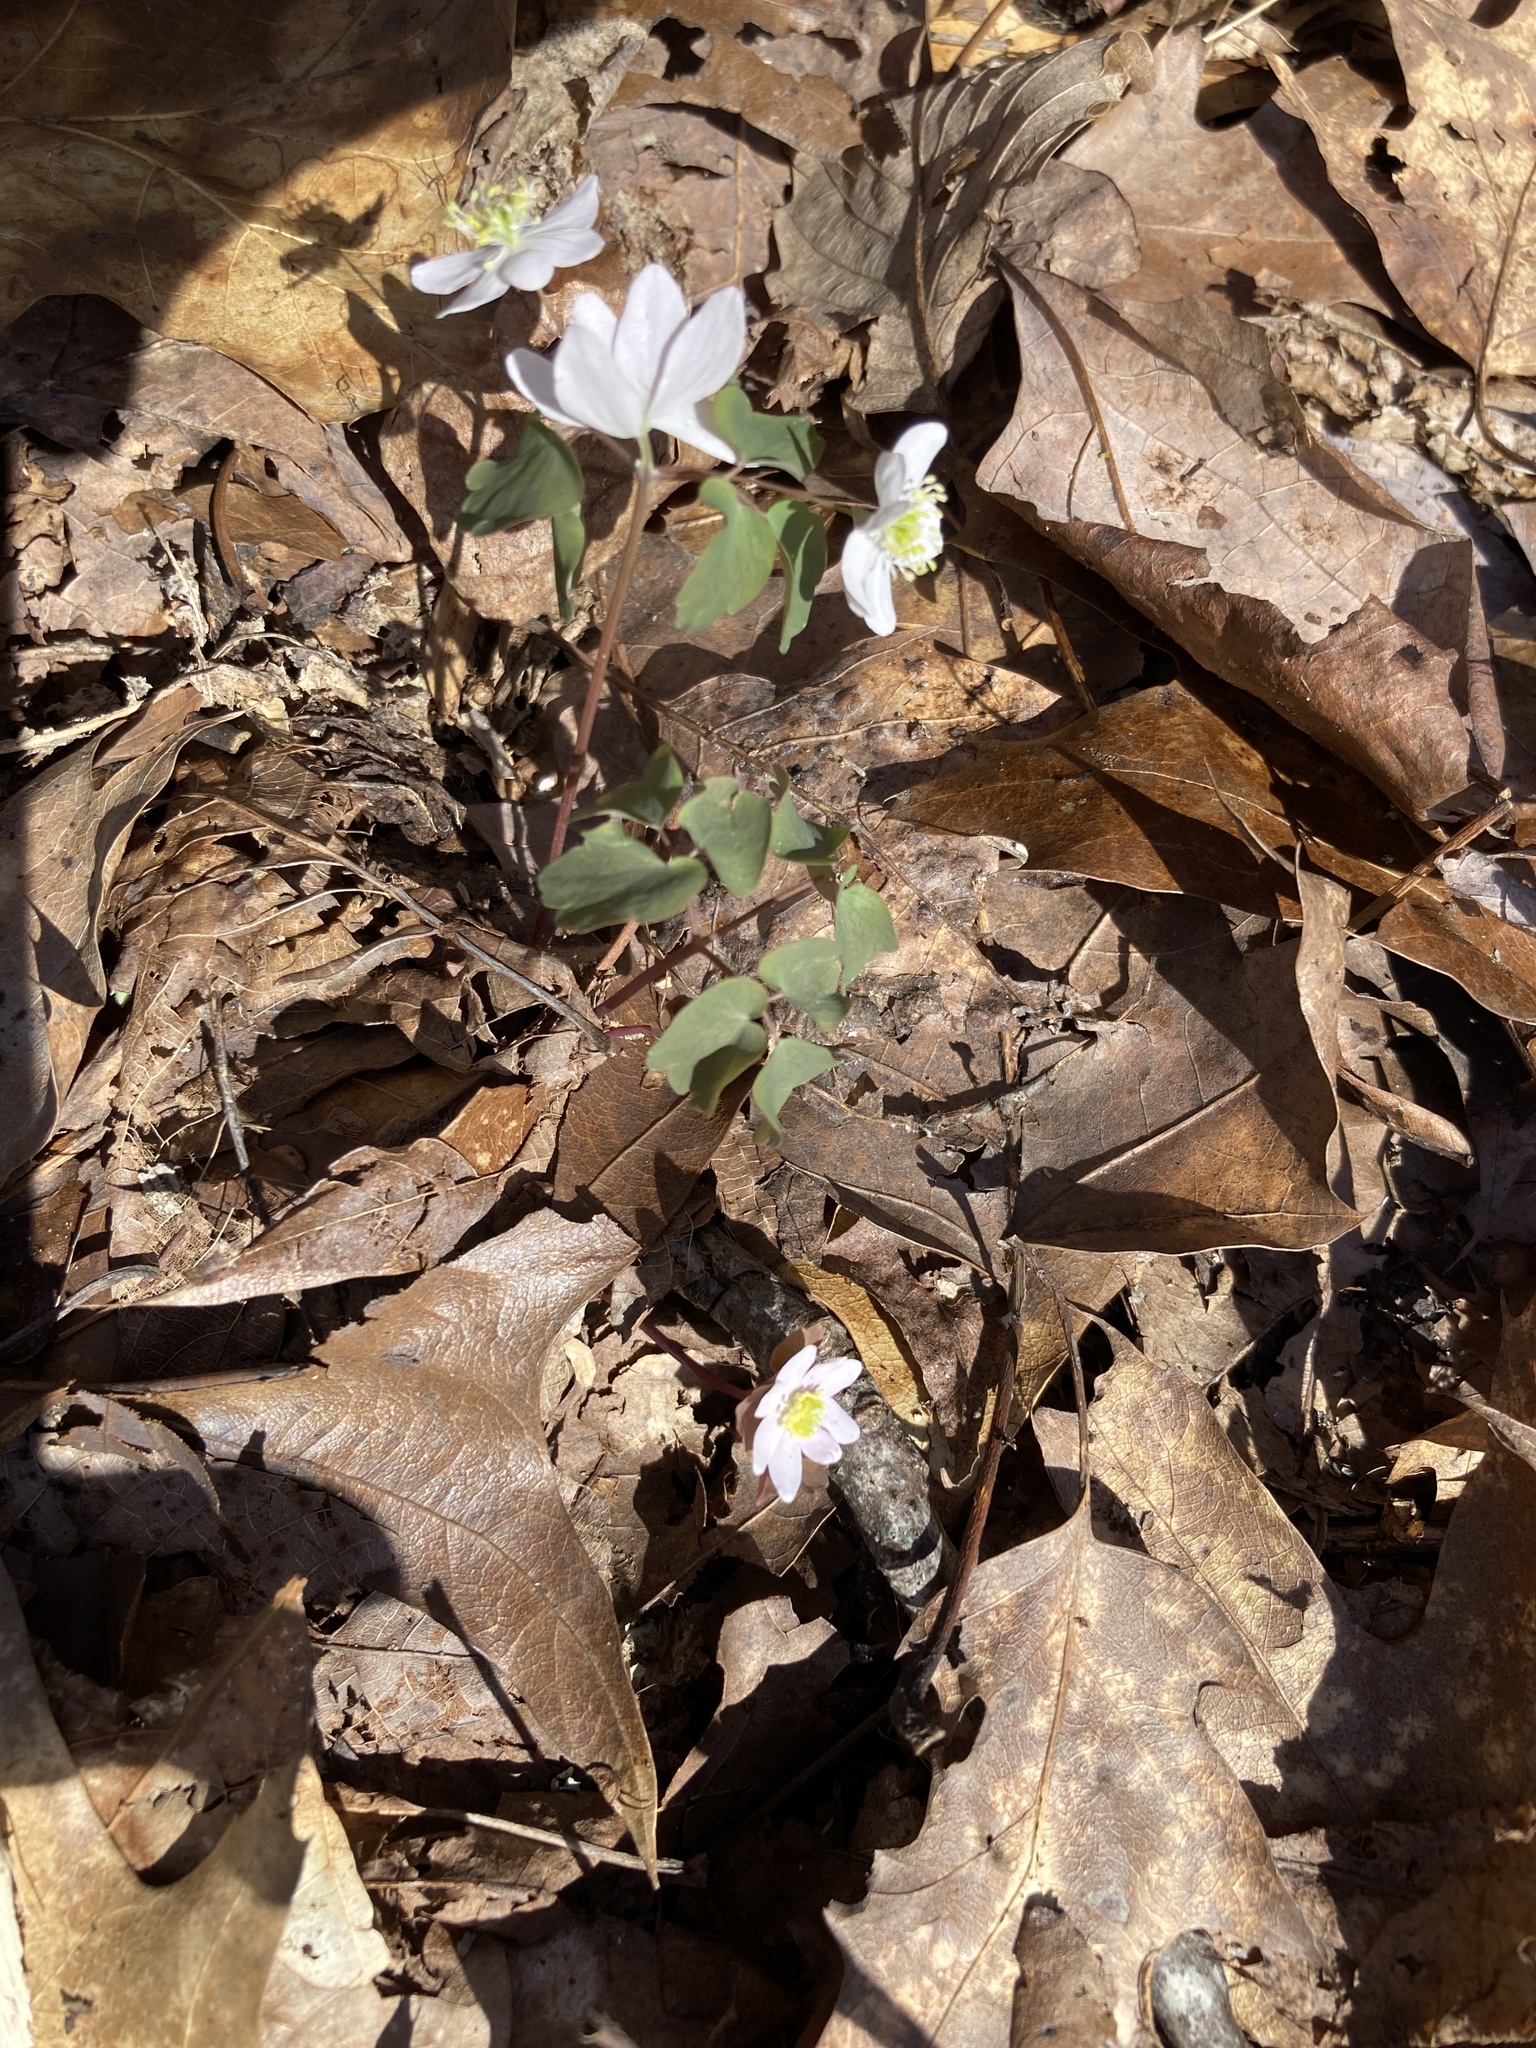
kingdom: Plantae
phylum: Tracheophyta
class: Magnoliopsida
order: Ranunculales
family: Ranunculaceae
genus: Thalictrum
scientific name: Thalictrum thalictroides
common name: Rue-anemone
